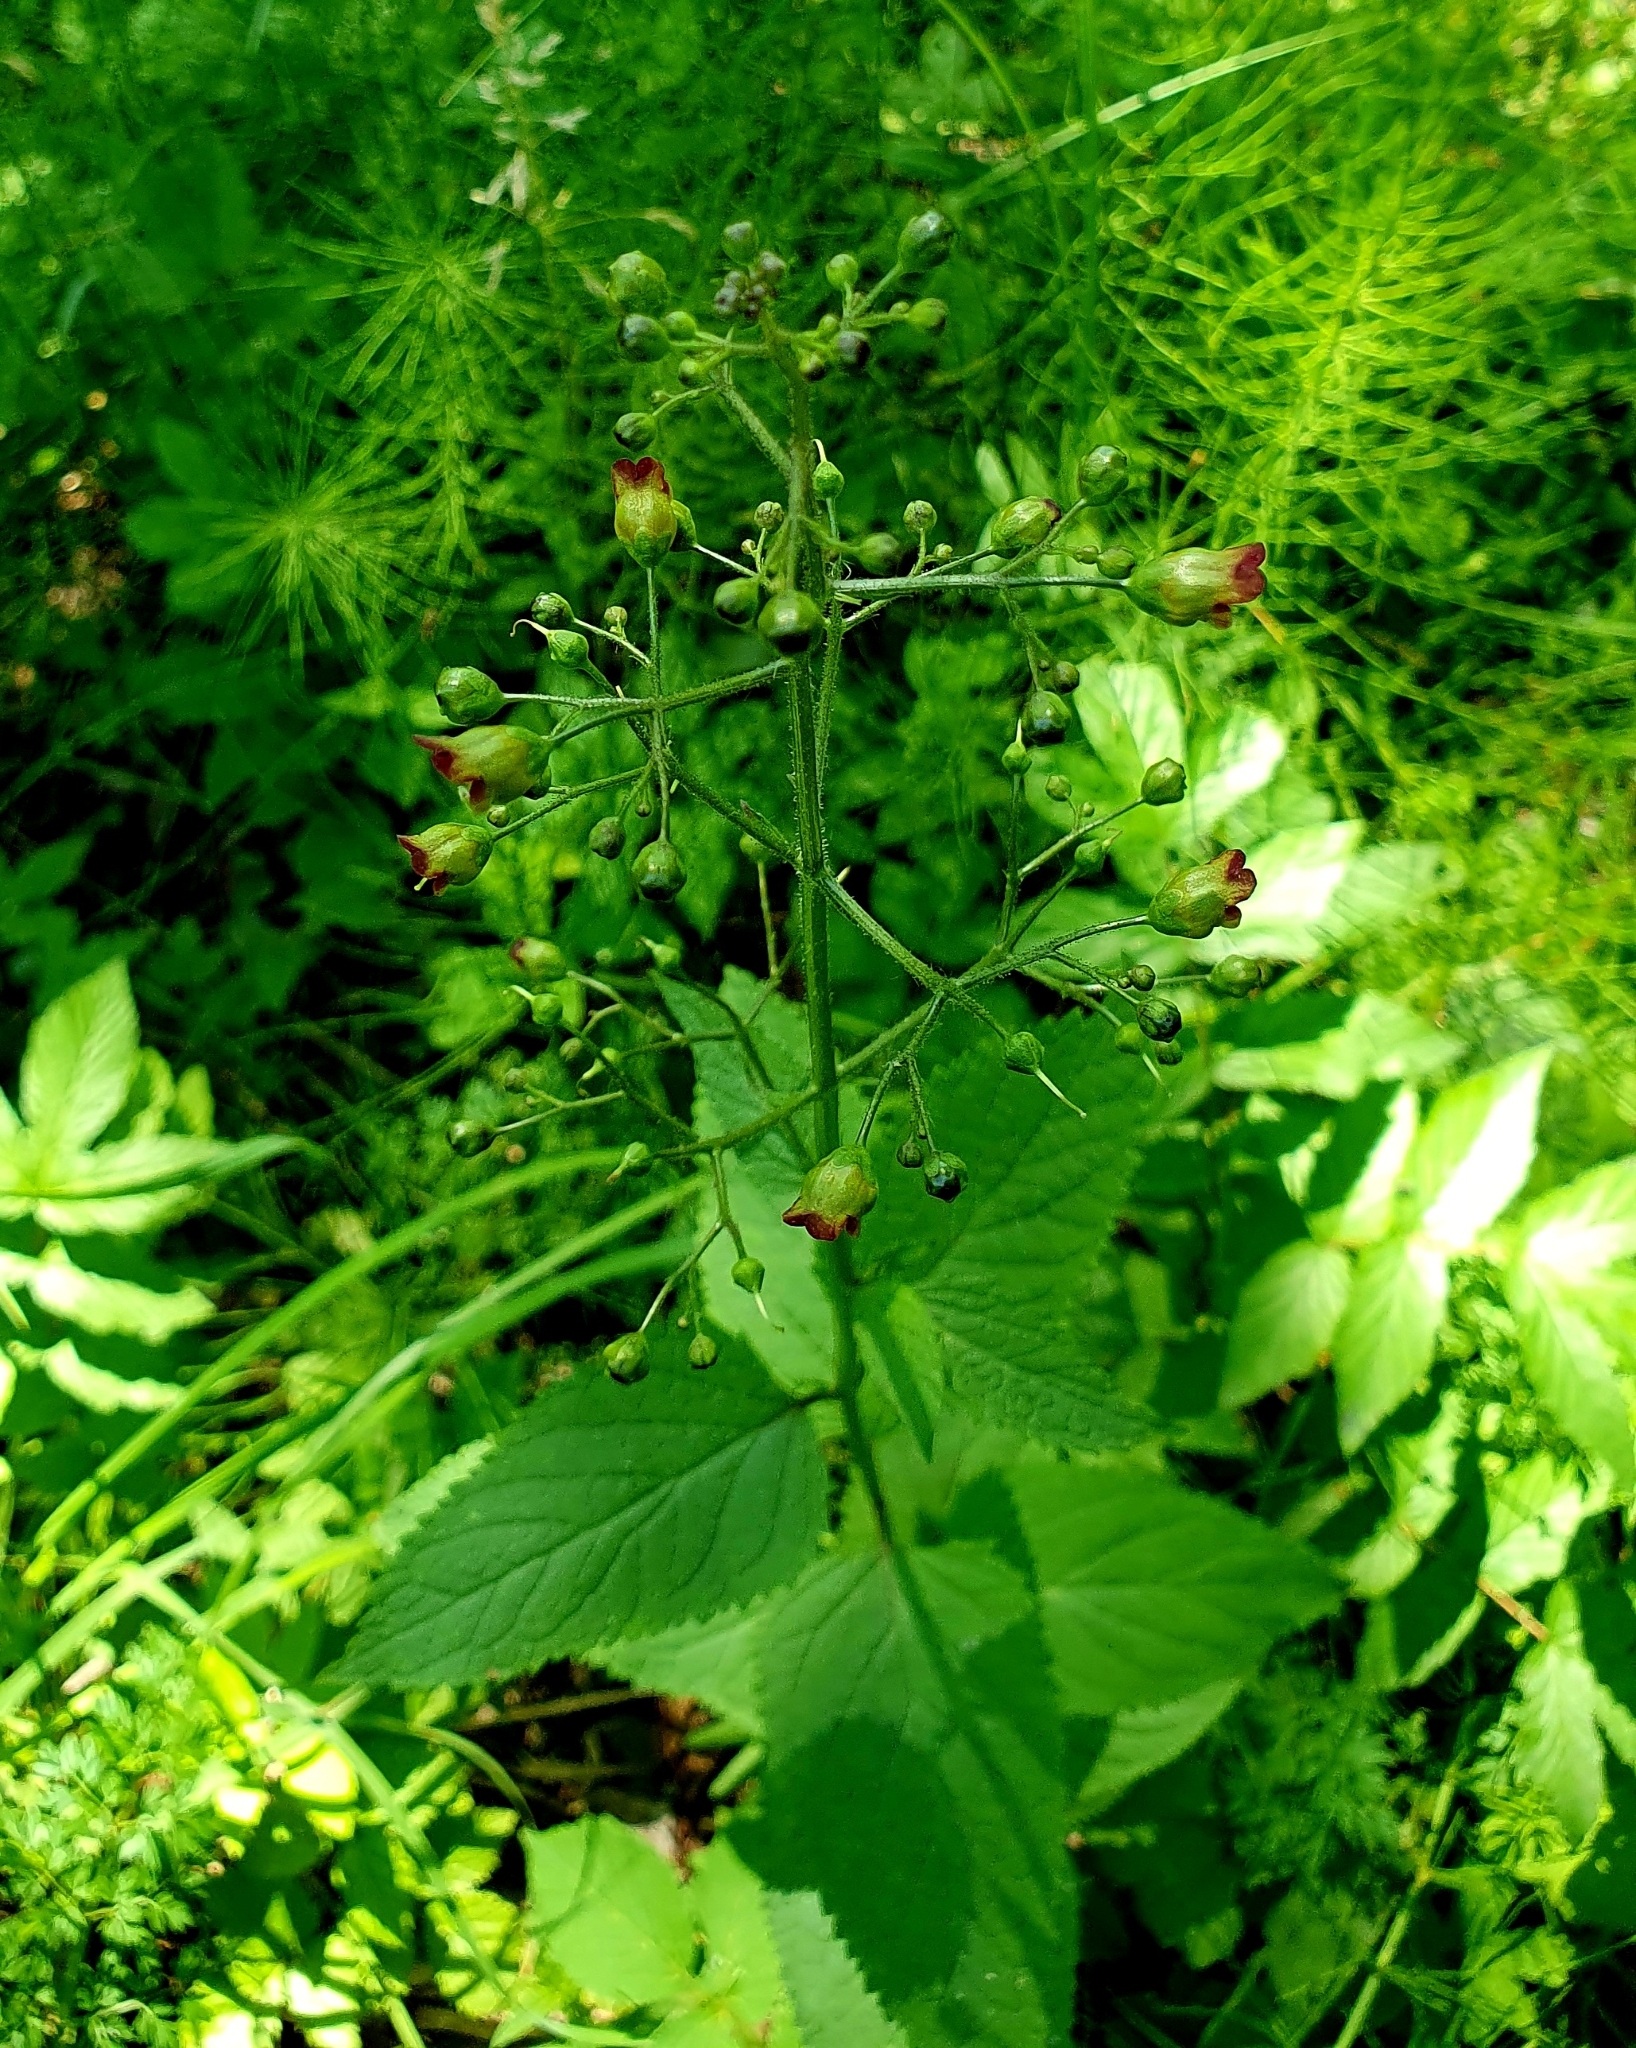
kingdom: Plantae
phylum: Tracheophyta
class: Magnoliopsida
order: Lamiales
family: Scrophulariaceae
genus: Scrophularia
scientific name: Scrophularia nodosa
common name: Common figwort
